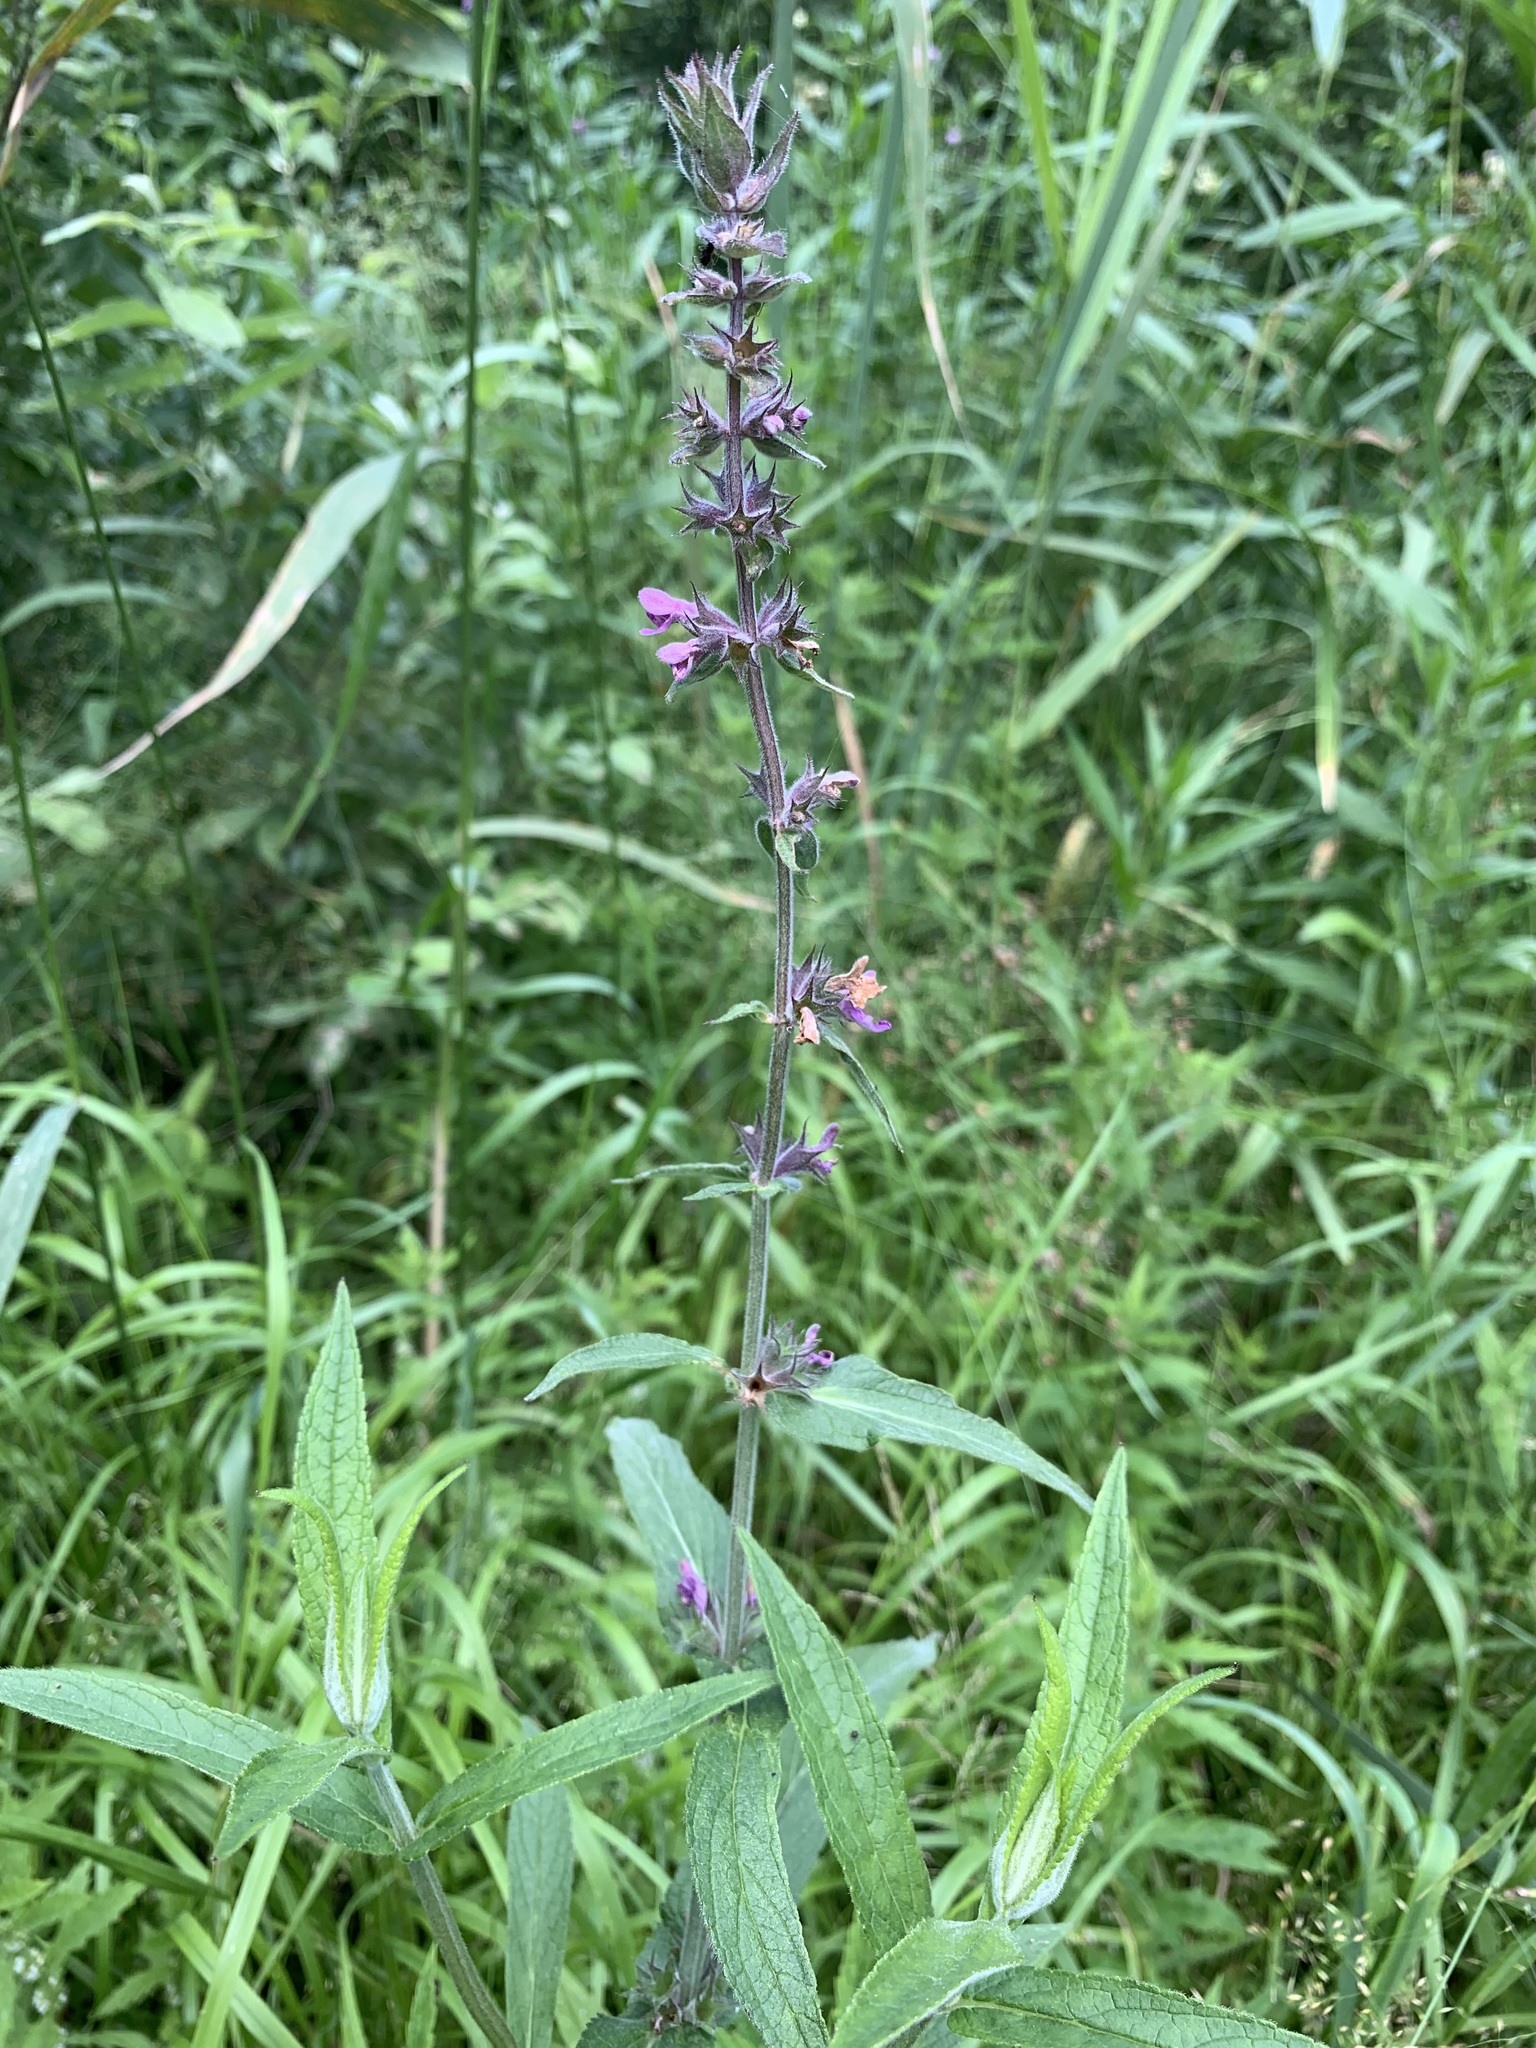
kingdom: Plantae
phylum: Tracheophyta
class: Magnoliopsida
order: Lamiales
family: Lamiaceae
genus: Stachys
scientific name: Stachys palustris
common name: Marsh woundwort
